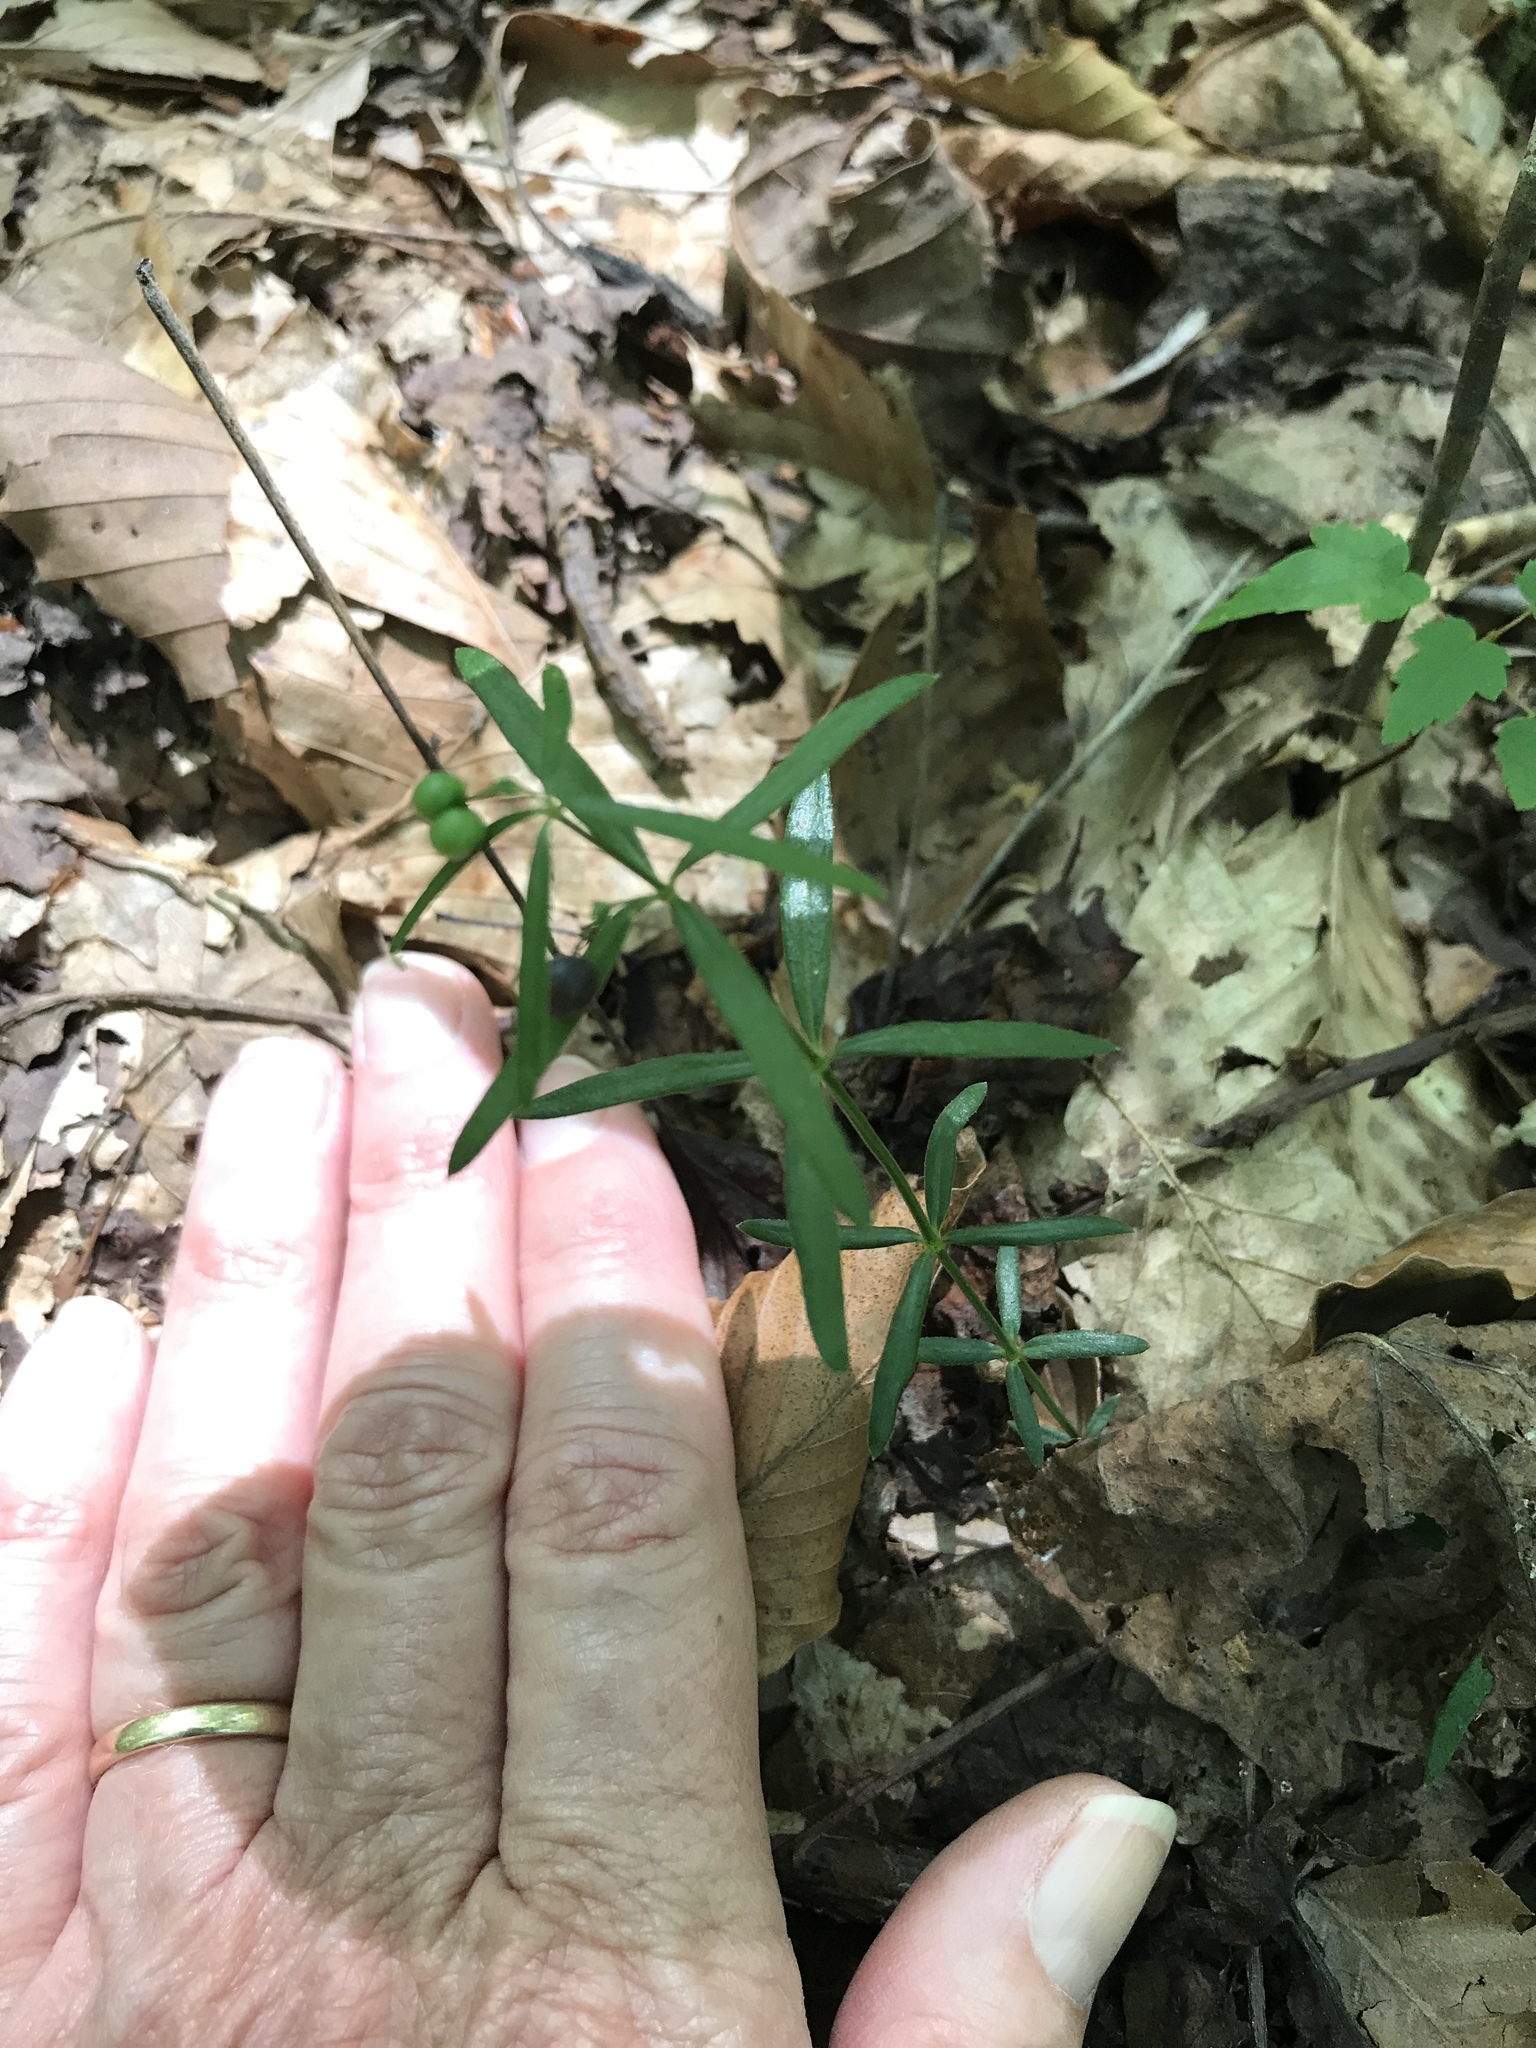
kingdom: Plantae
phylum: Tracheophyta
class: Magnoliopsida
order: Gentianales
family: Rubiaceae
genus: Galium
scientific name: Galium uniflorum
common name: One-flower bedstraw
